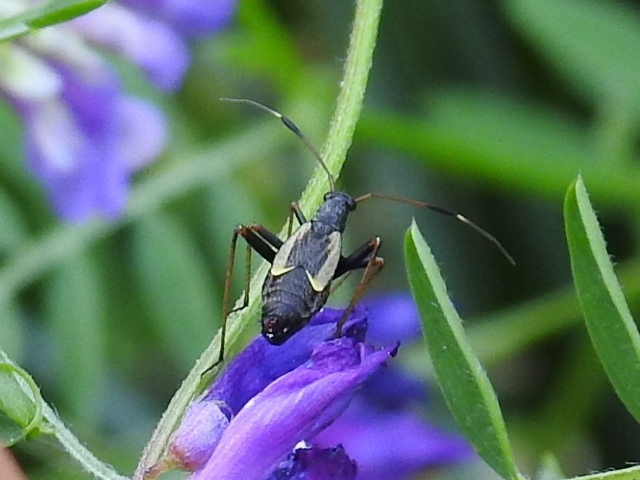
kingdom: Animalia
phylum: Arthropoda
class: Insecta
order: Hemiptera
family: Miridae
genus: Aphanosoma
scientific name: Aphanosoma italicum
